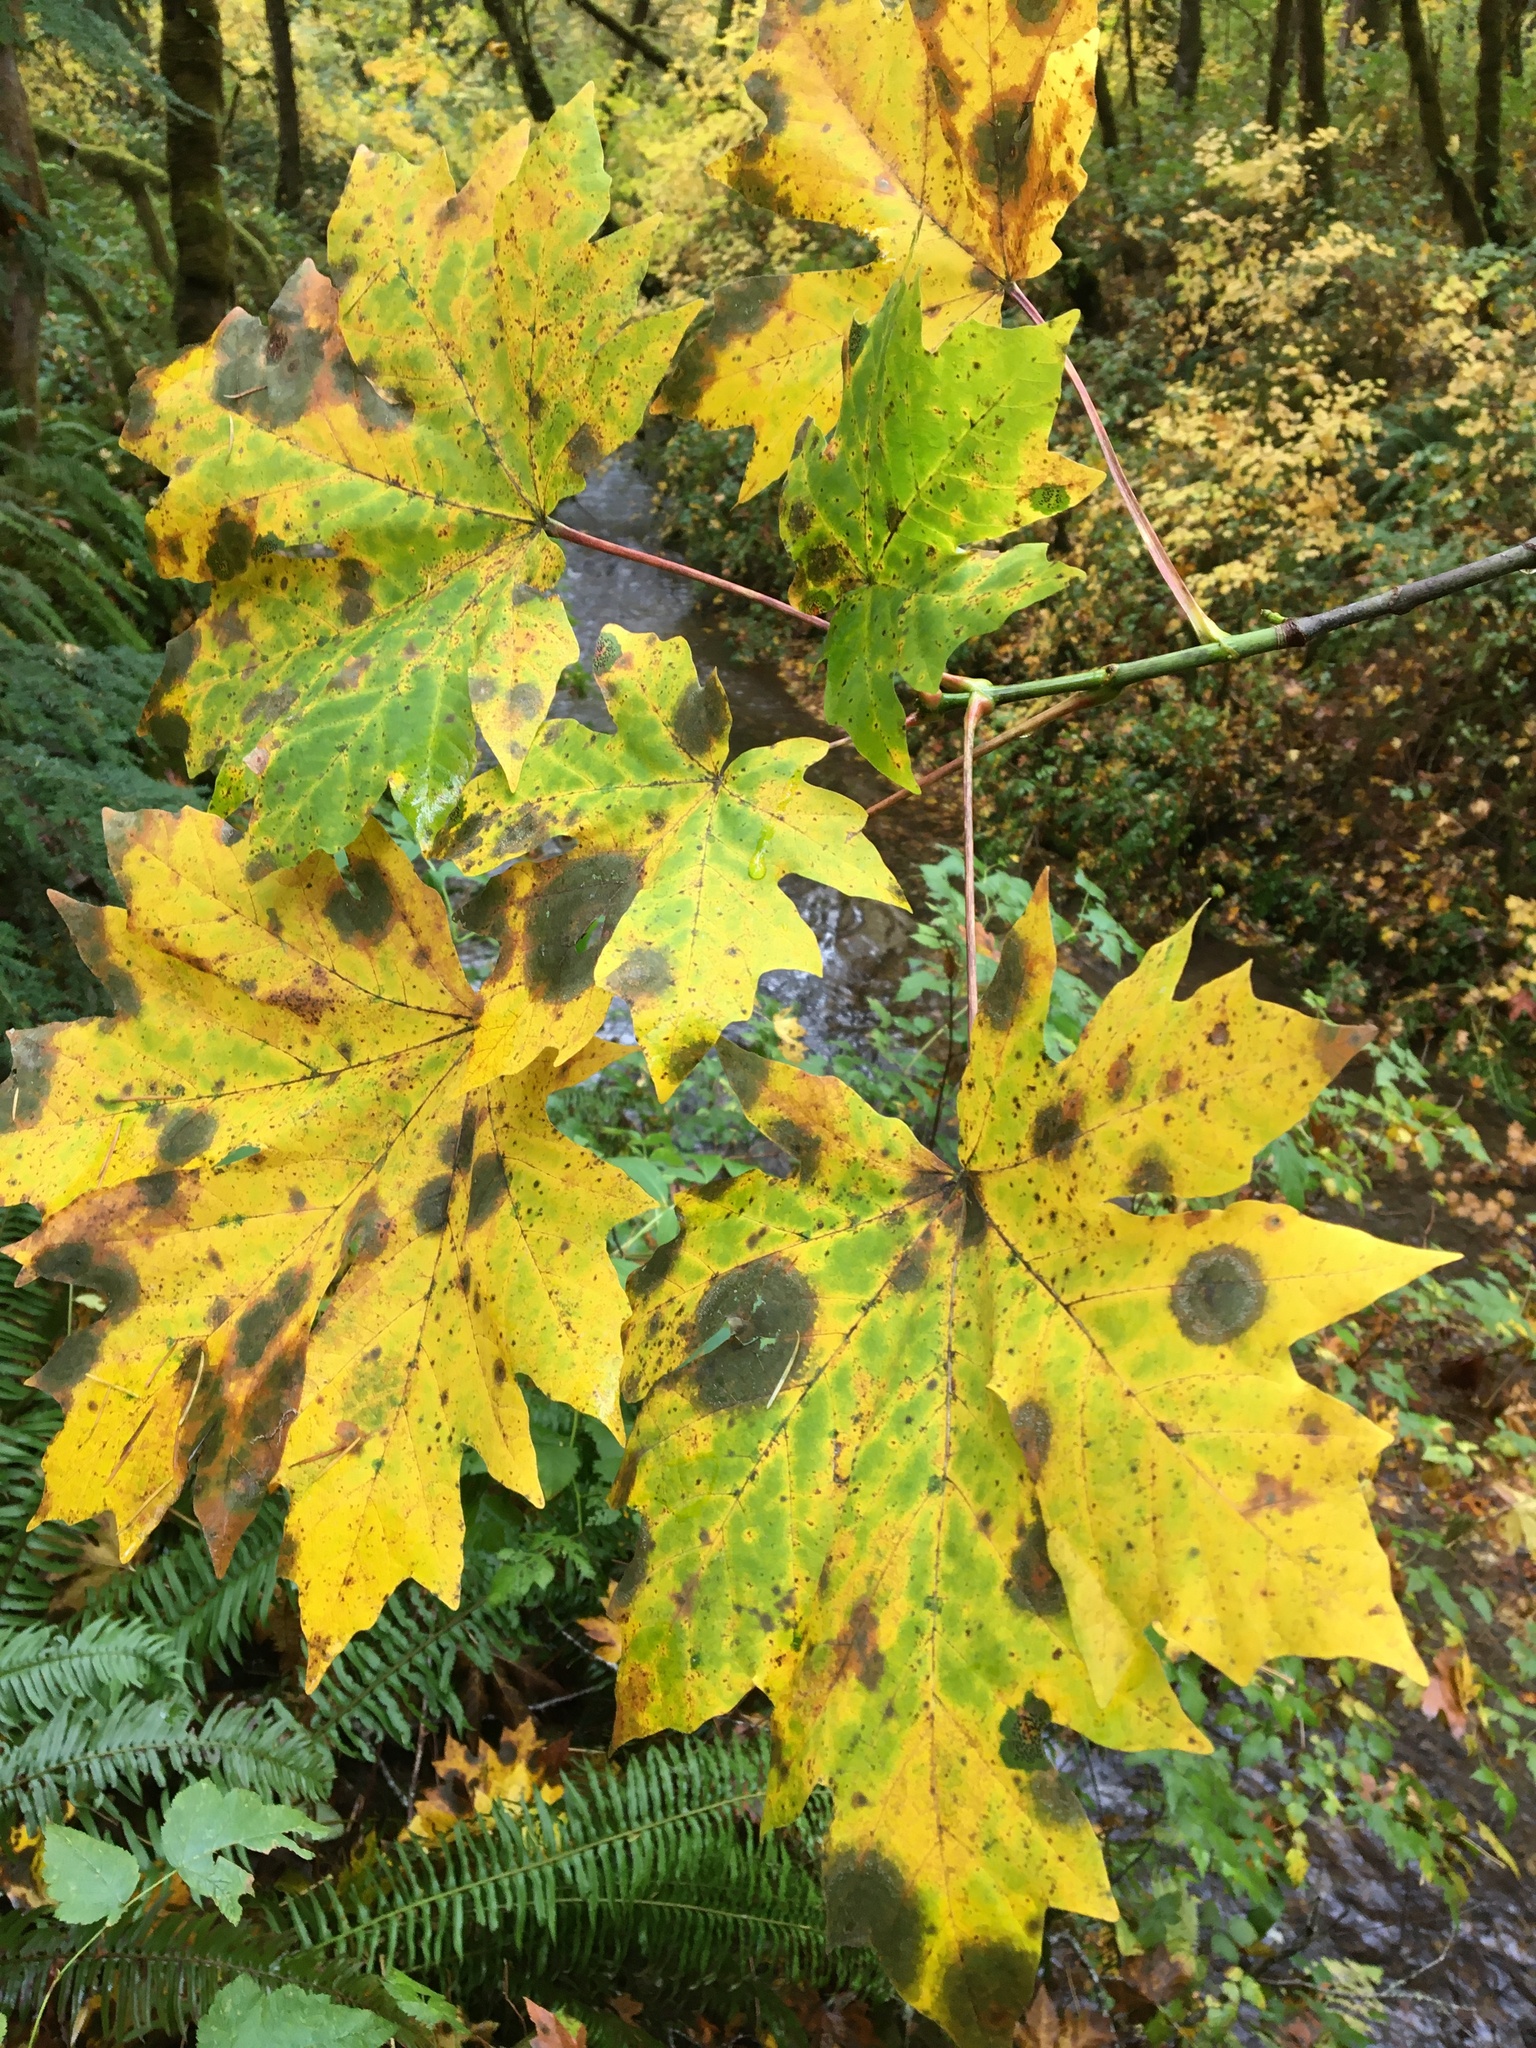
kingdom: Plantae
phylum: Tracheophyta
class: Magnoliopsida
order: Sapindales
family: Sapindaceae
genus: Acer
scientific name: Acer macrophyllum
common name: Oregon maple
